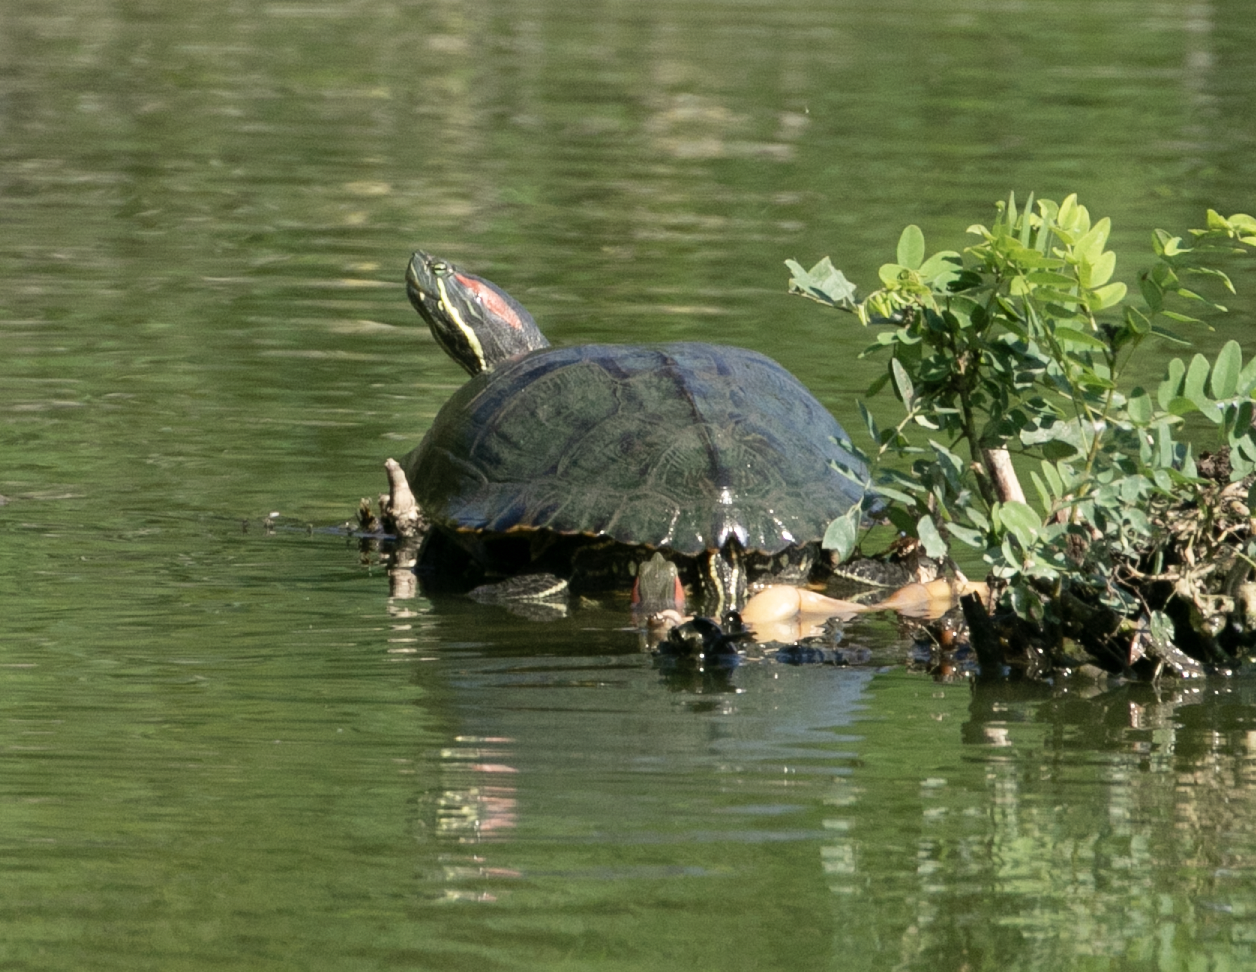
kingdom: Animalia
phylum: Chordata
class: Testudines
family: Emydidae
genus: Trachemys
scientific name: Trachemys scripta
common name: Slider
